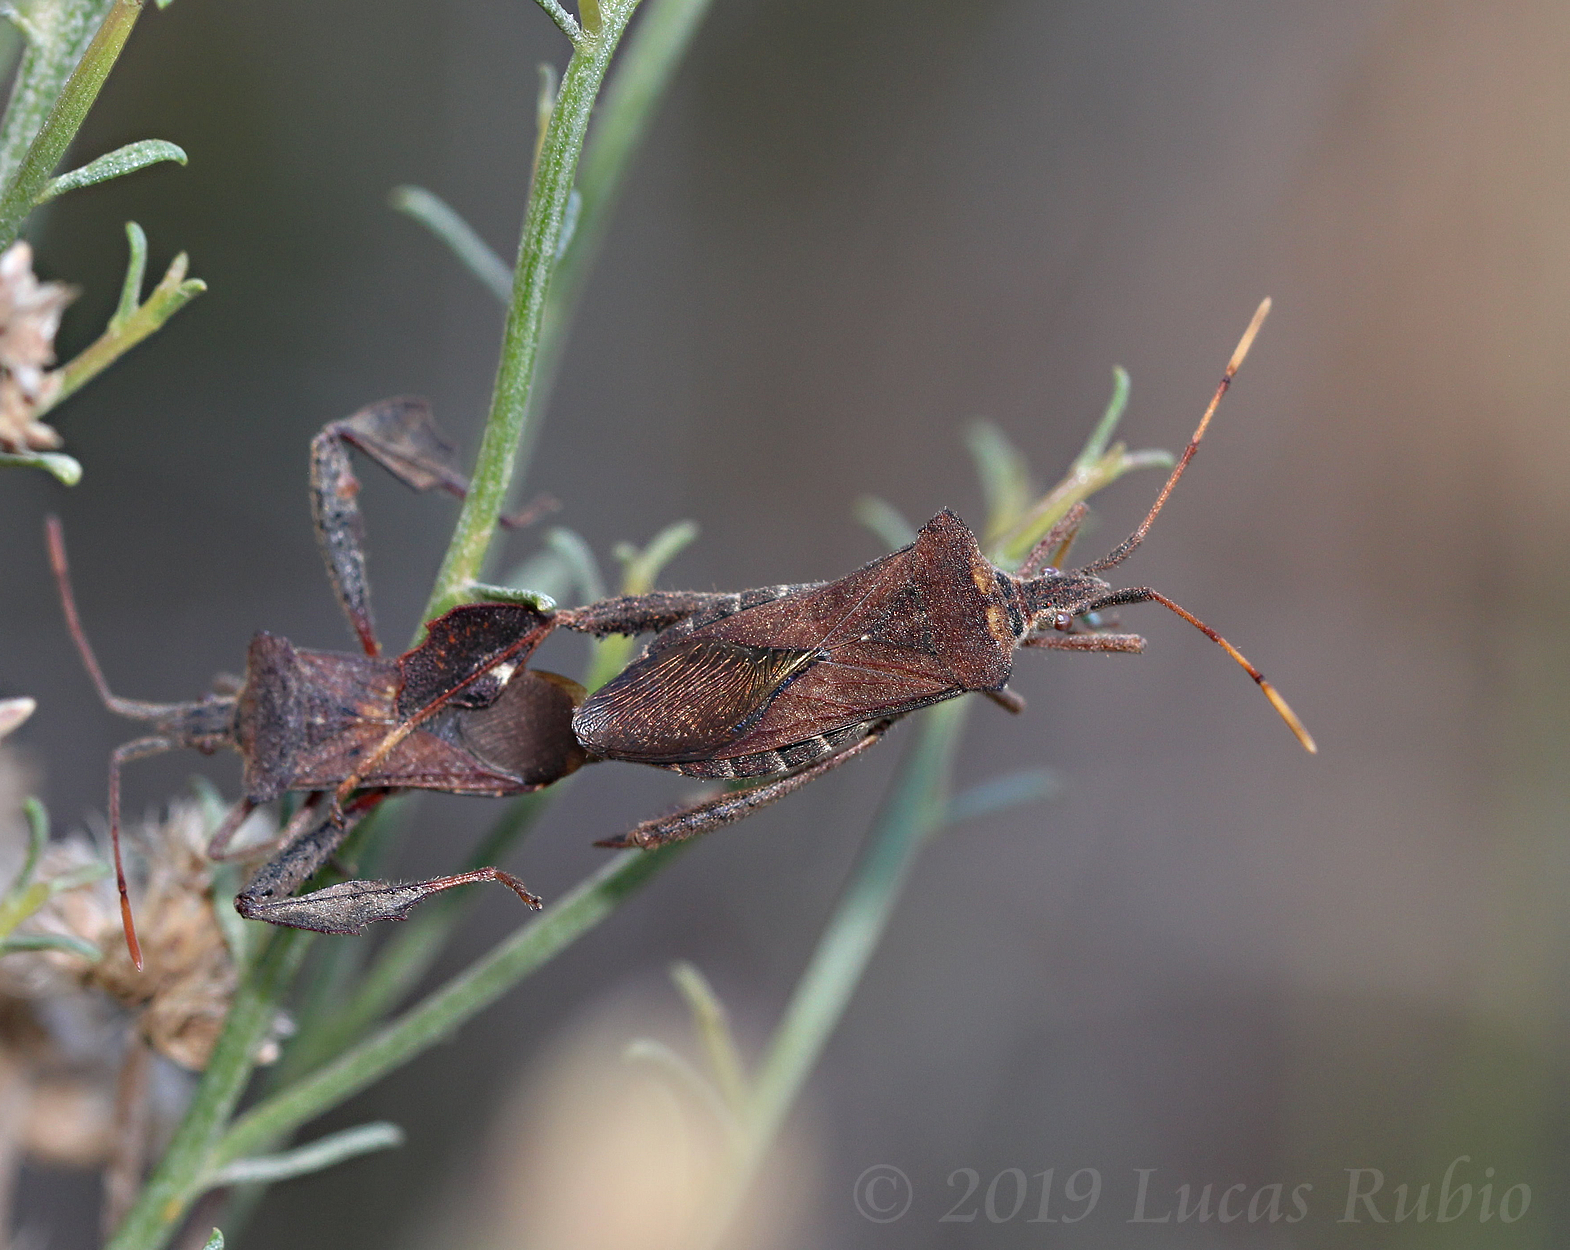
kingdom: Animalia
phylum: Arthropoda
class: Insecta
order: Hemiptera
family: Coreidae
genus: Leptoglossus
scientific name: Leptoglossus concaviusculus
